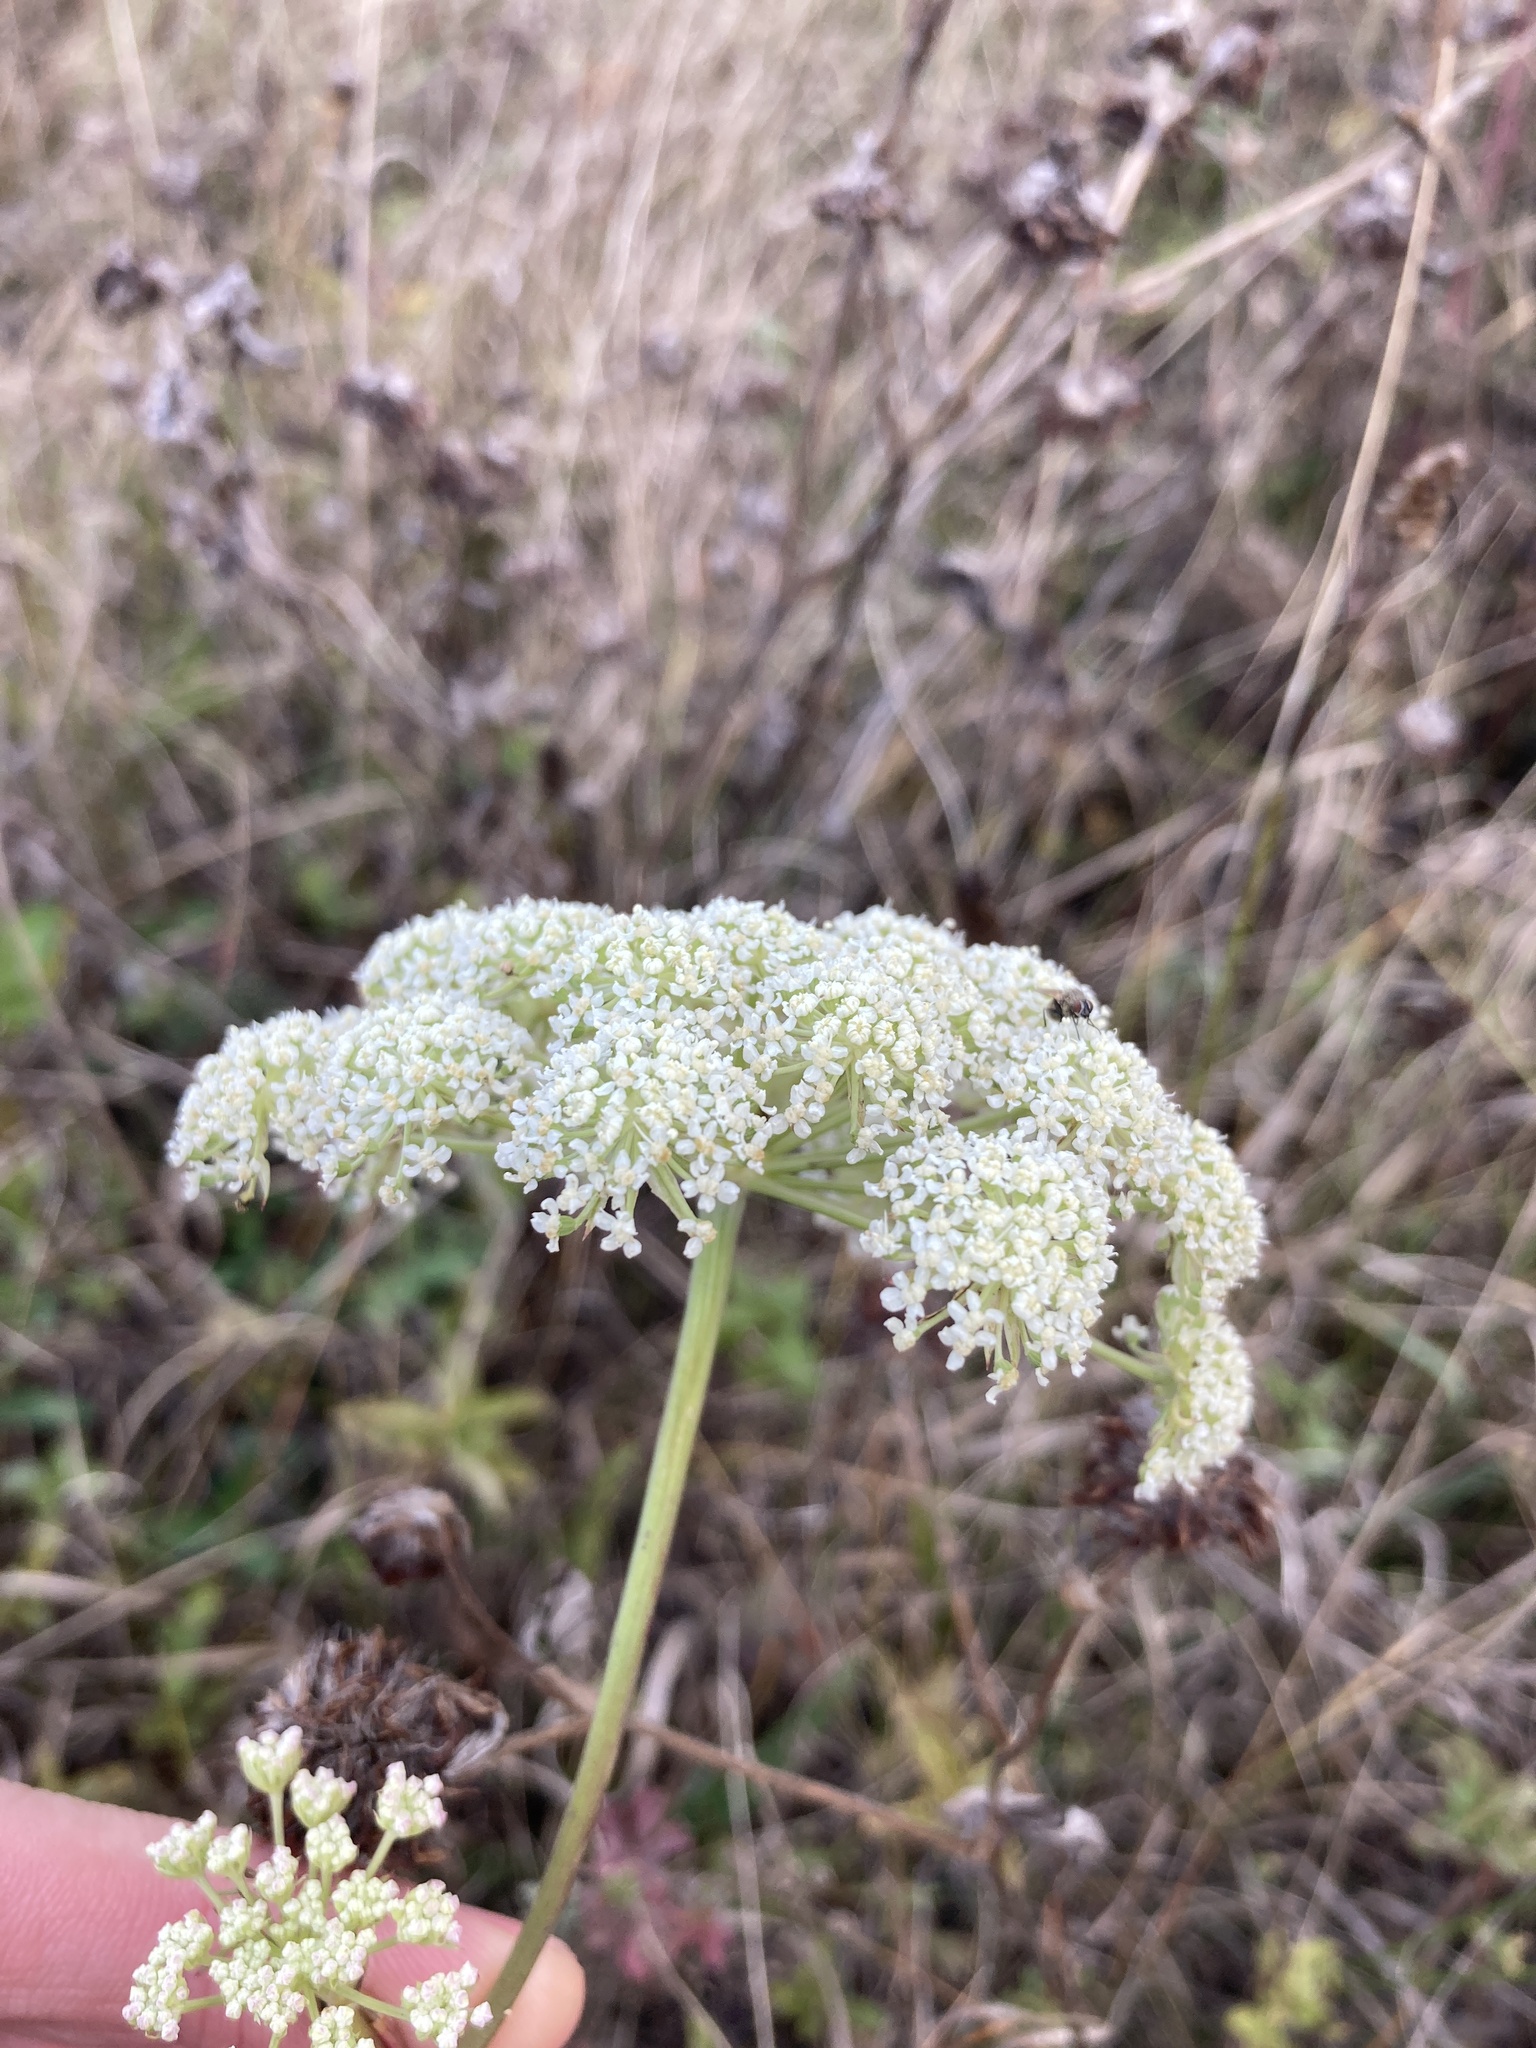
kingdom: Plantae
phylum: Tracheophyta
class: Magnoliopsida
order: Apiales
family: Apiaceae
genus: Seseli
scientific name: Seseli annuum
